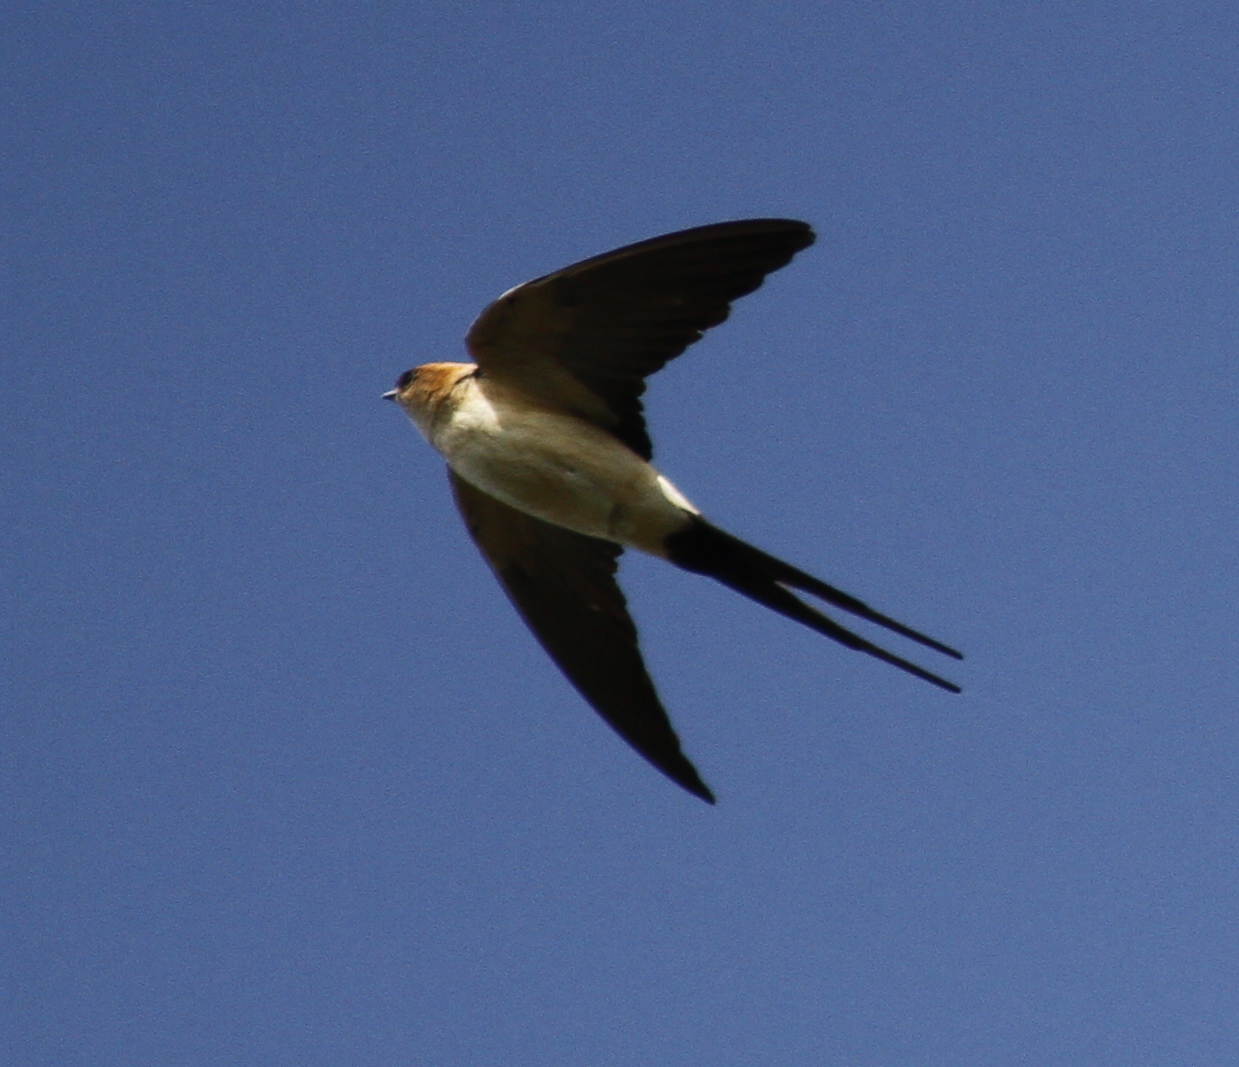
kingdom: Animalia
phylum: Chordata
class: Aves
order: Passeriformes
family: Hirundinidae
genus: Cecropis
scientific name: Cecropis daurica
